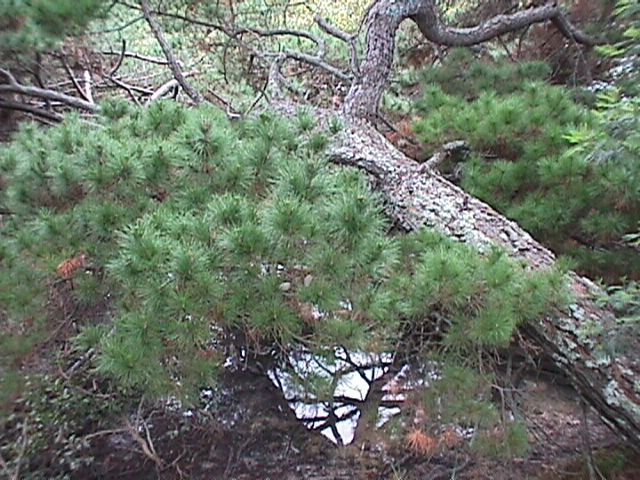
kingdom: Plantae
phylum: Tracheophyta
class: Pinopsida
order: Pinales
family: Pinaceae
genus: Pinus
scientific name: Pinus radiata
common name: Monterey pine
